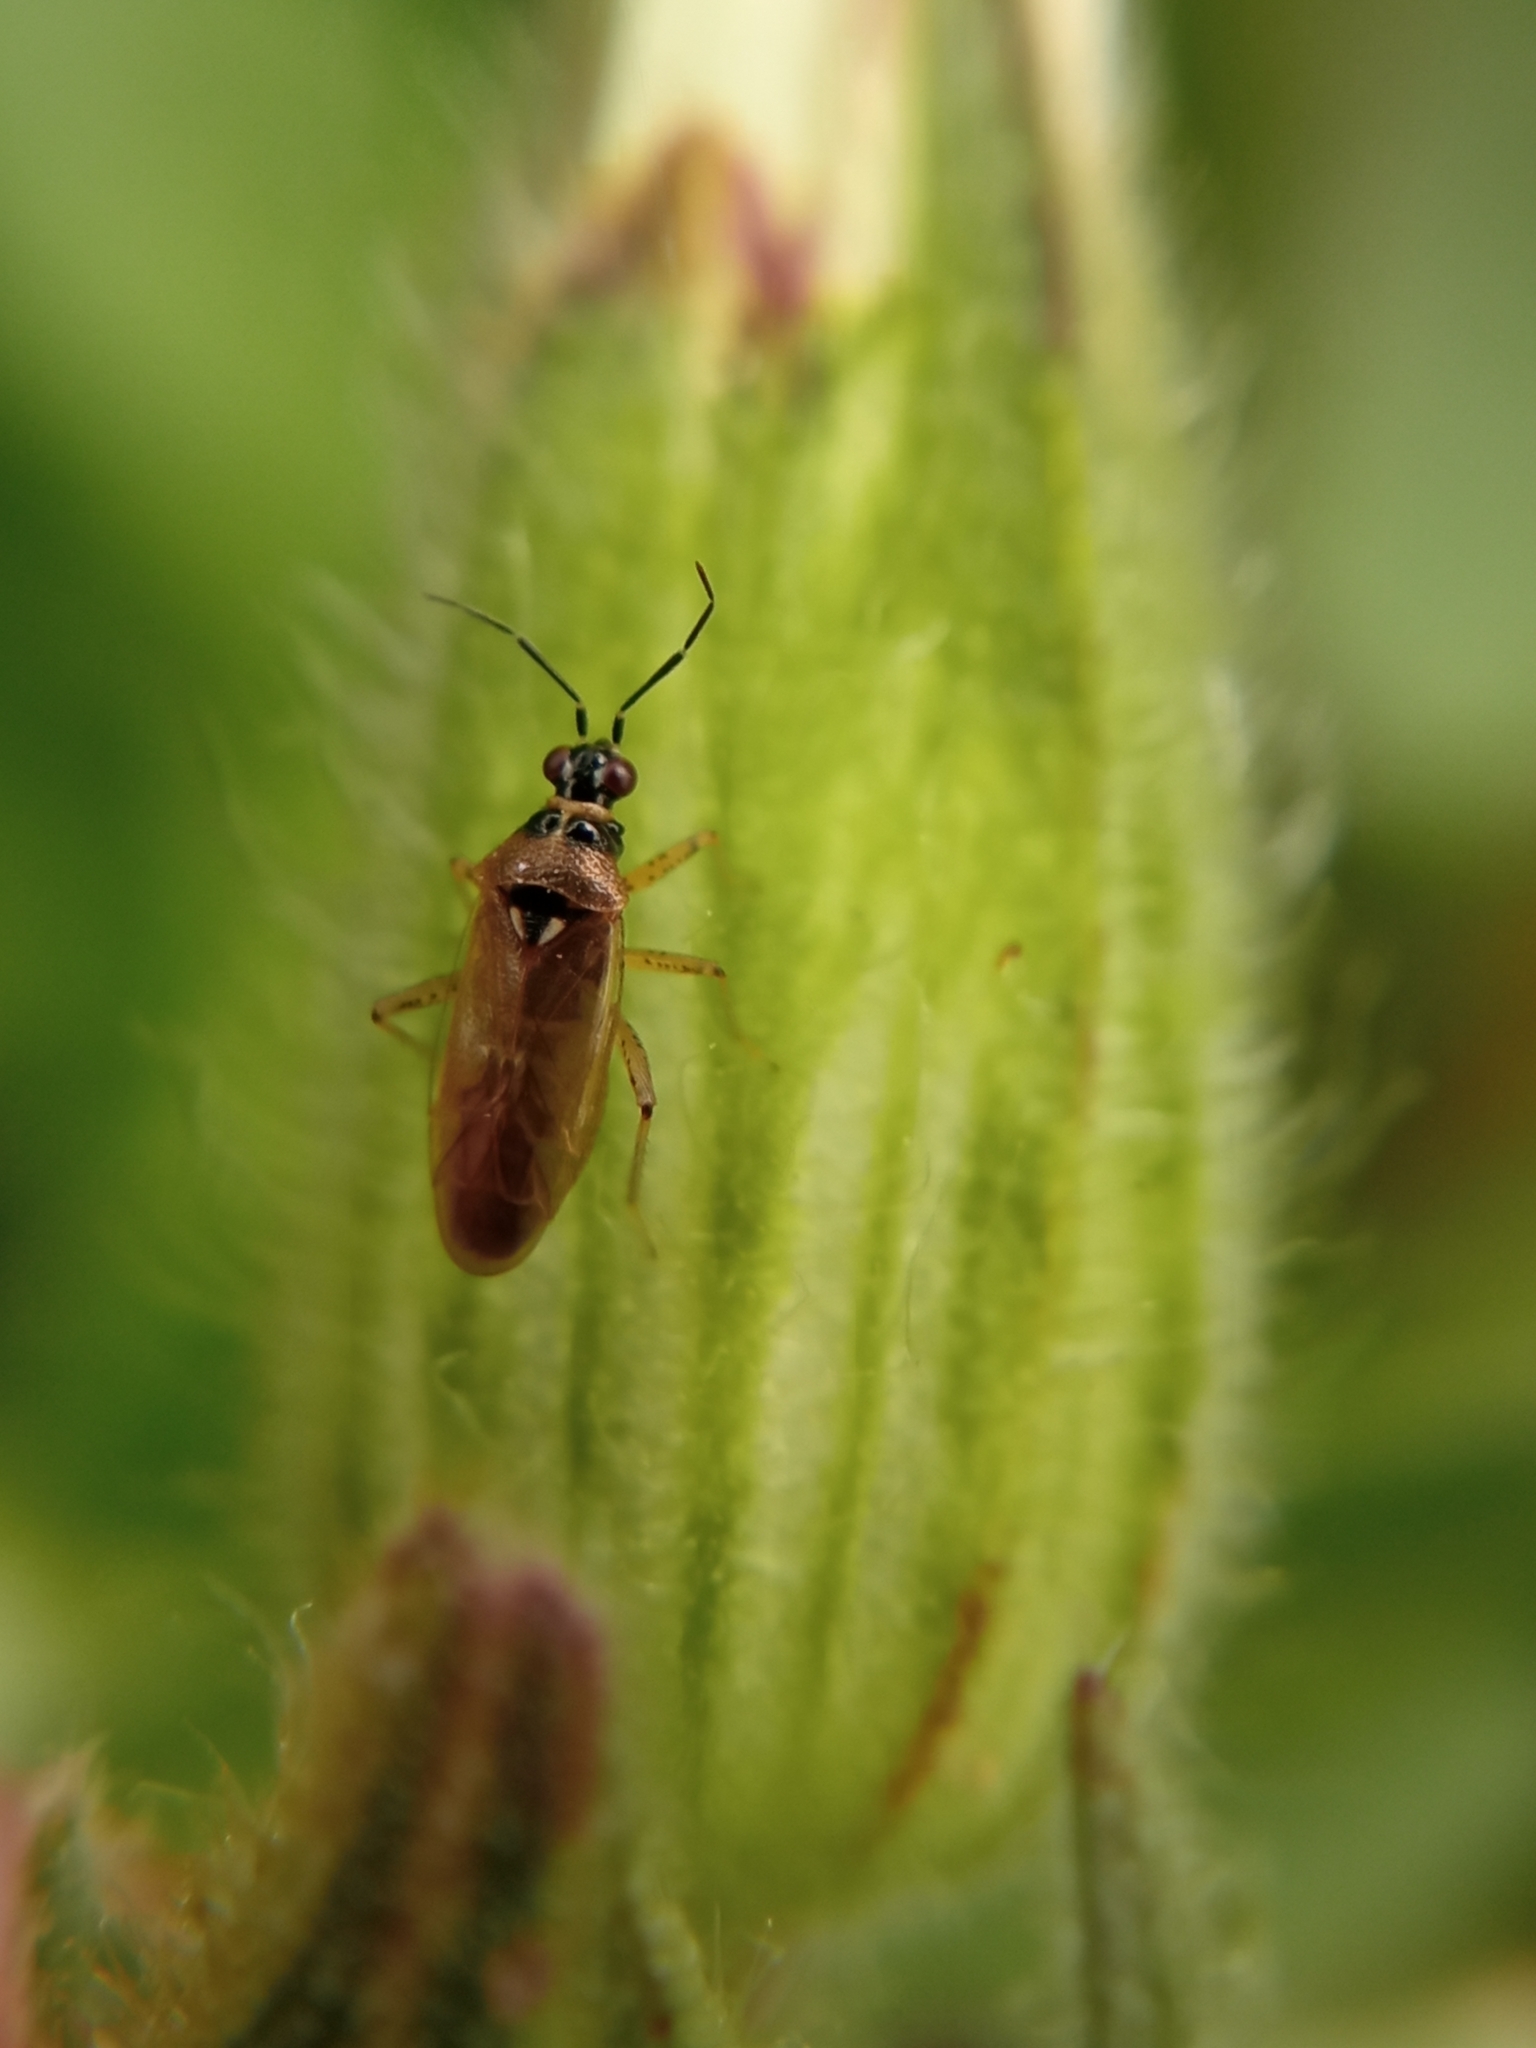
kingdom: Animalia
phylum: Arthropoda
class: Insecta
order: Hemiptera
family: Miridae
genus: Dicyphus
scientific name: Dicyphus globulifer
